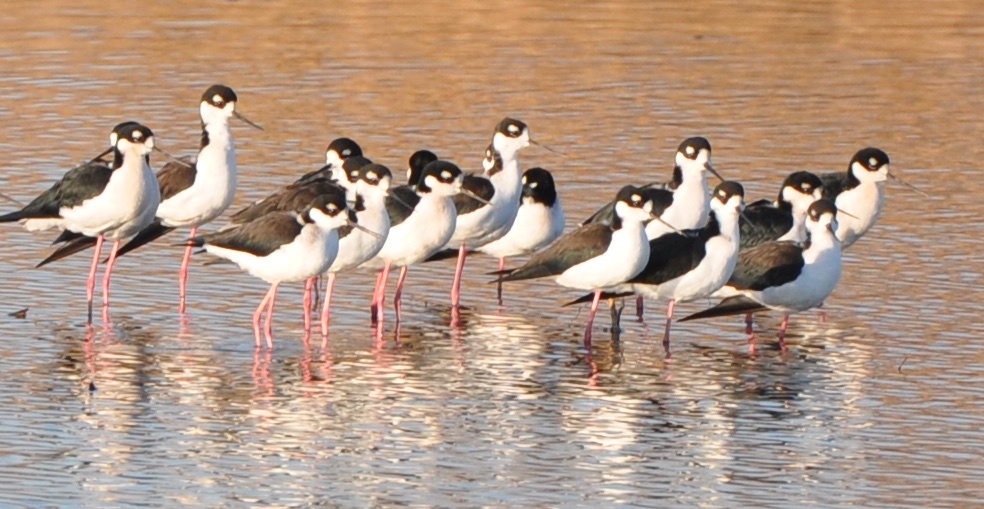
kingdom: Animalia
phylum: Chordata
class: Aves
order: Charadriiformes
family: Recurvirostridae
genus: Himantopus
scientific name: Himantopus mexicanus
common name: Black-necked stilt
